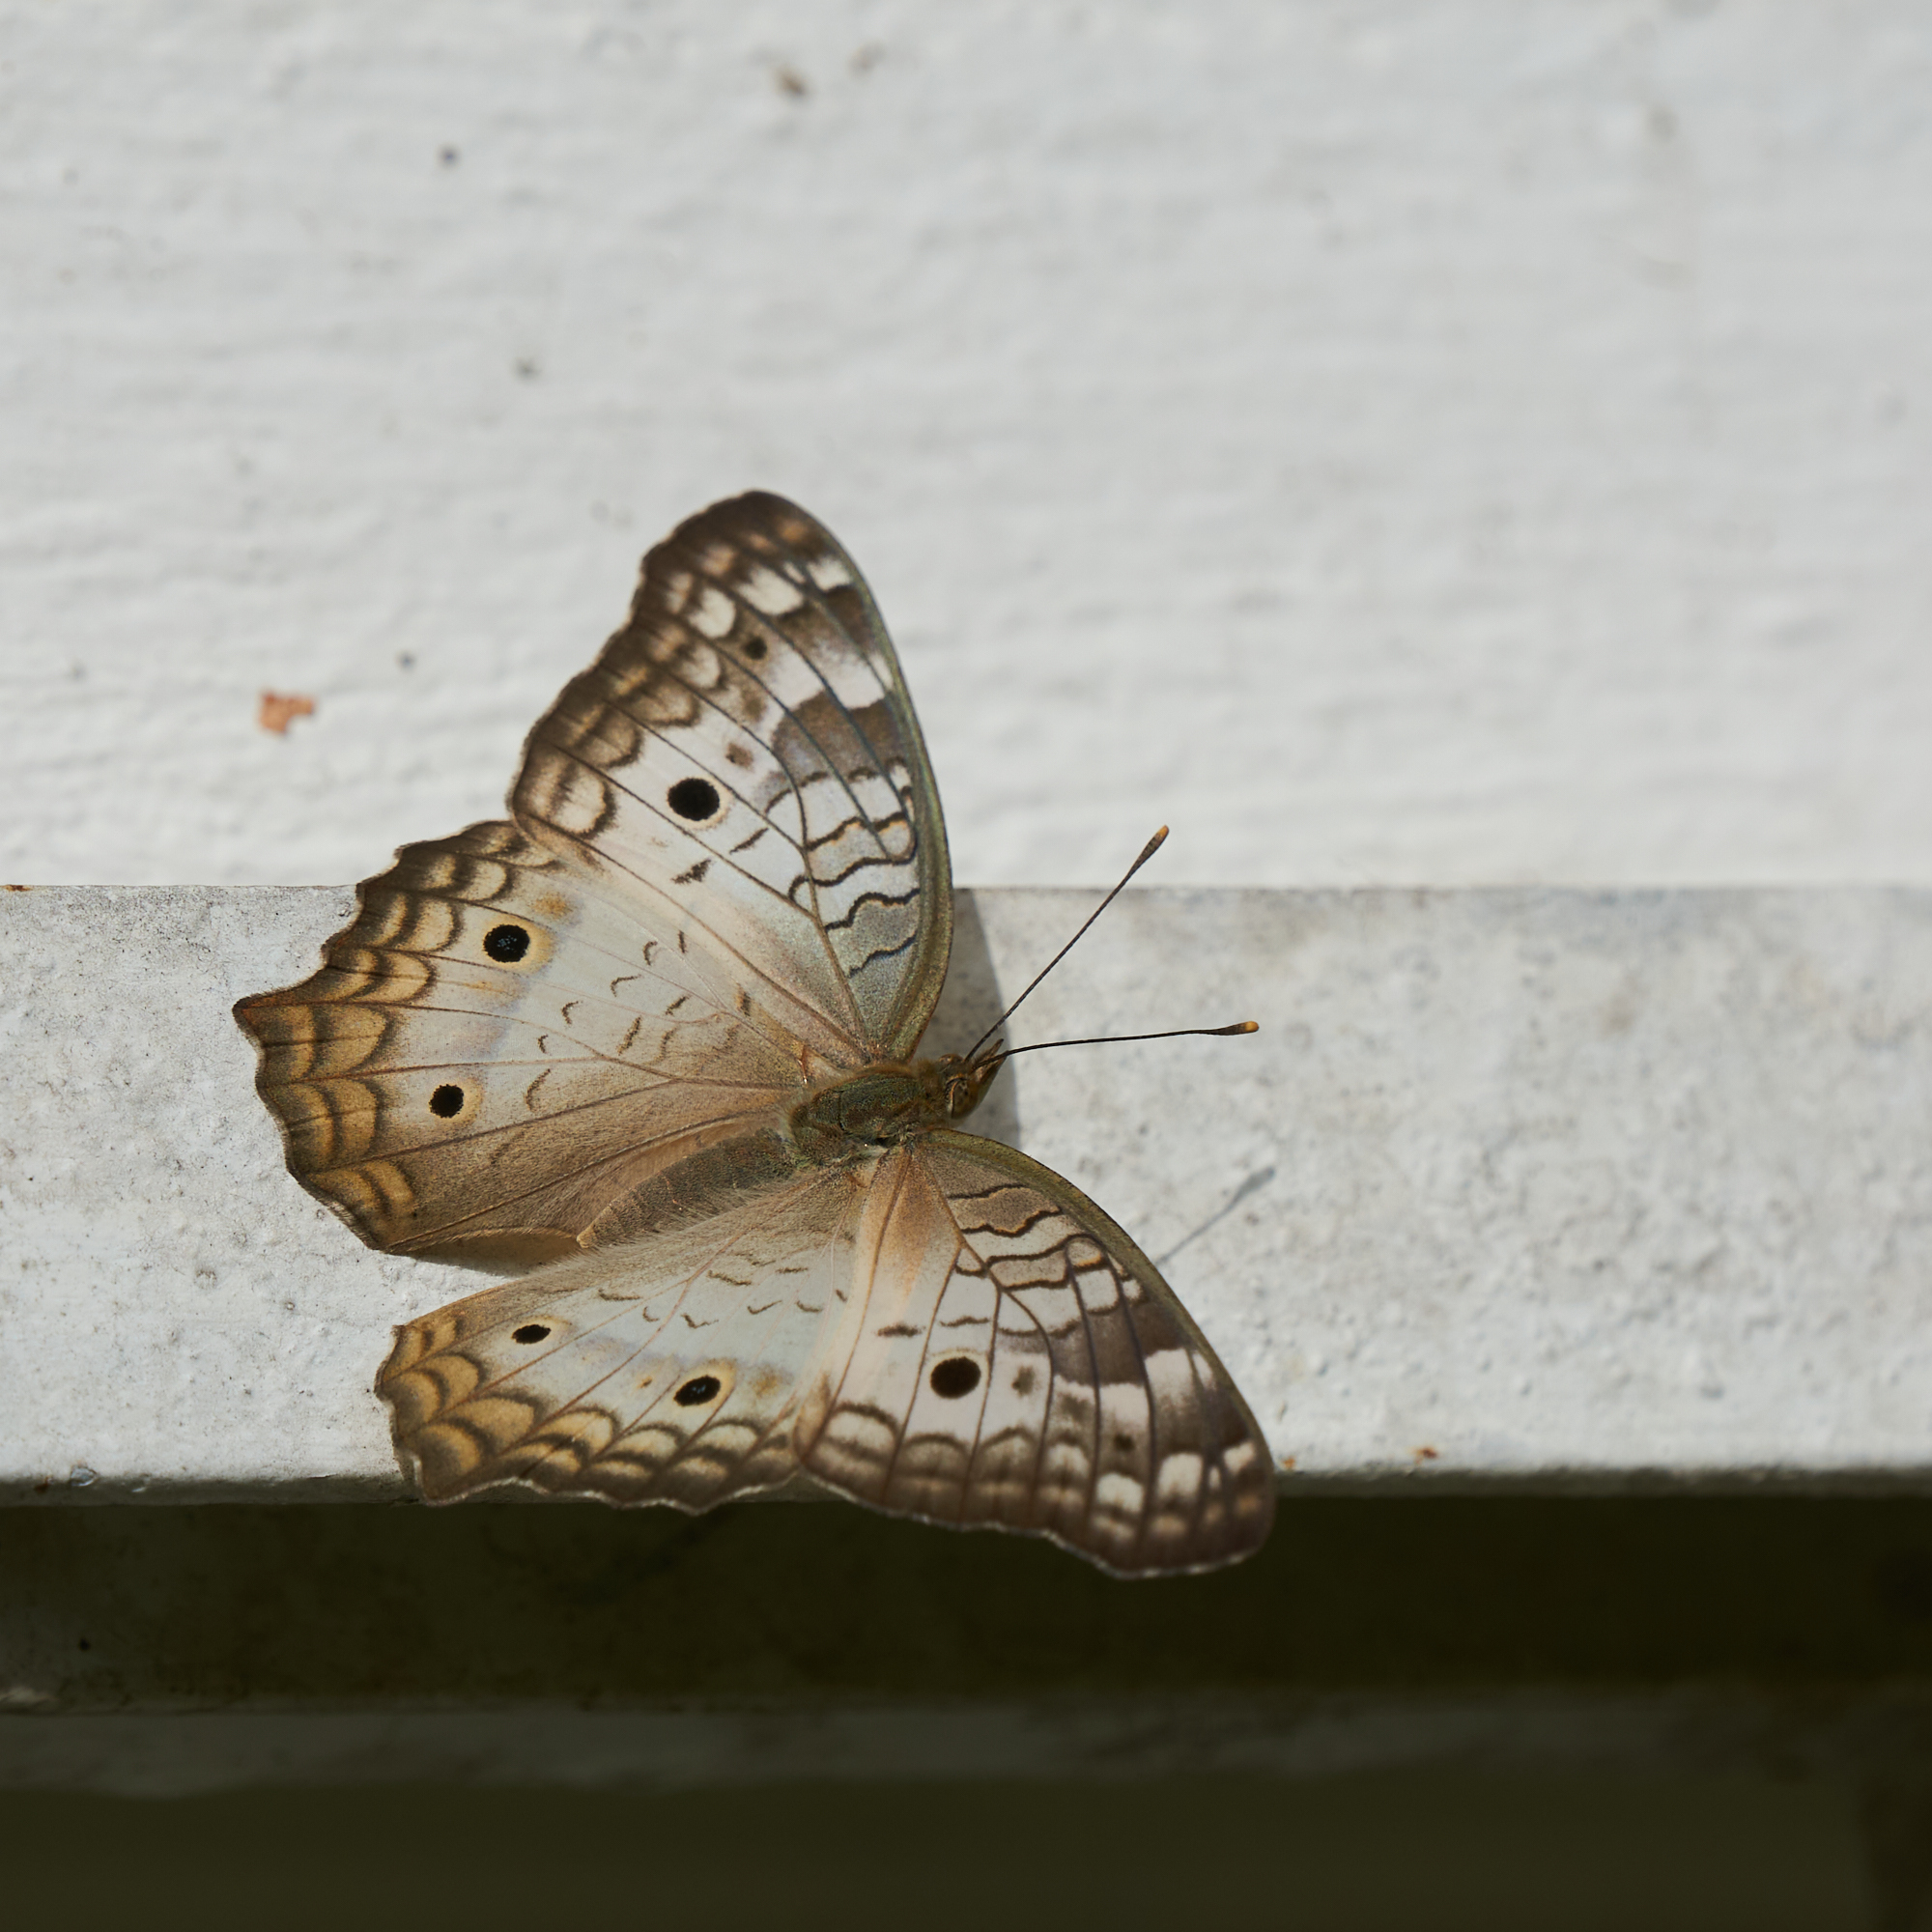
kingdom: Animalia
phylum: Arthropoda
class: Insecta
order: Lepidoptera
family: Nymphalidae
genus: Anartia
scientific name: Anartia jatrophae
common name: White peacock
